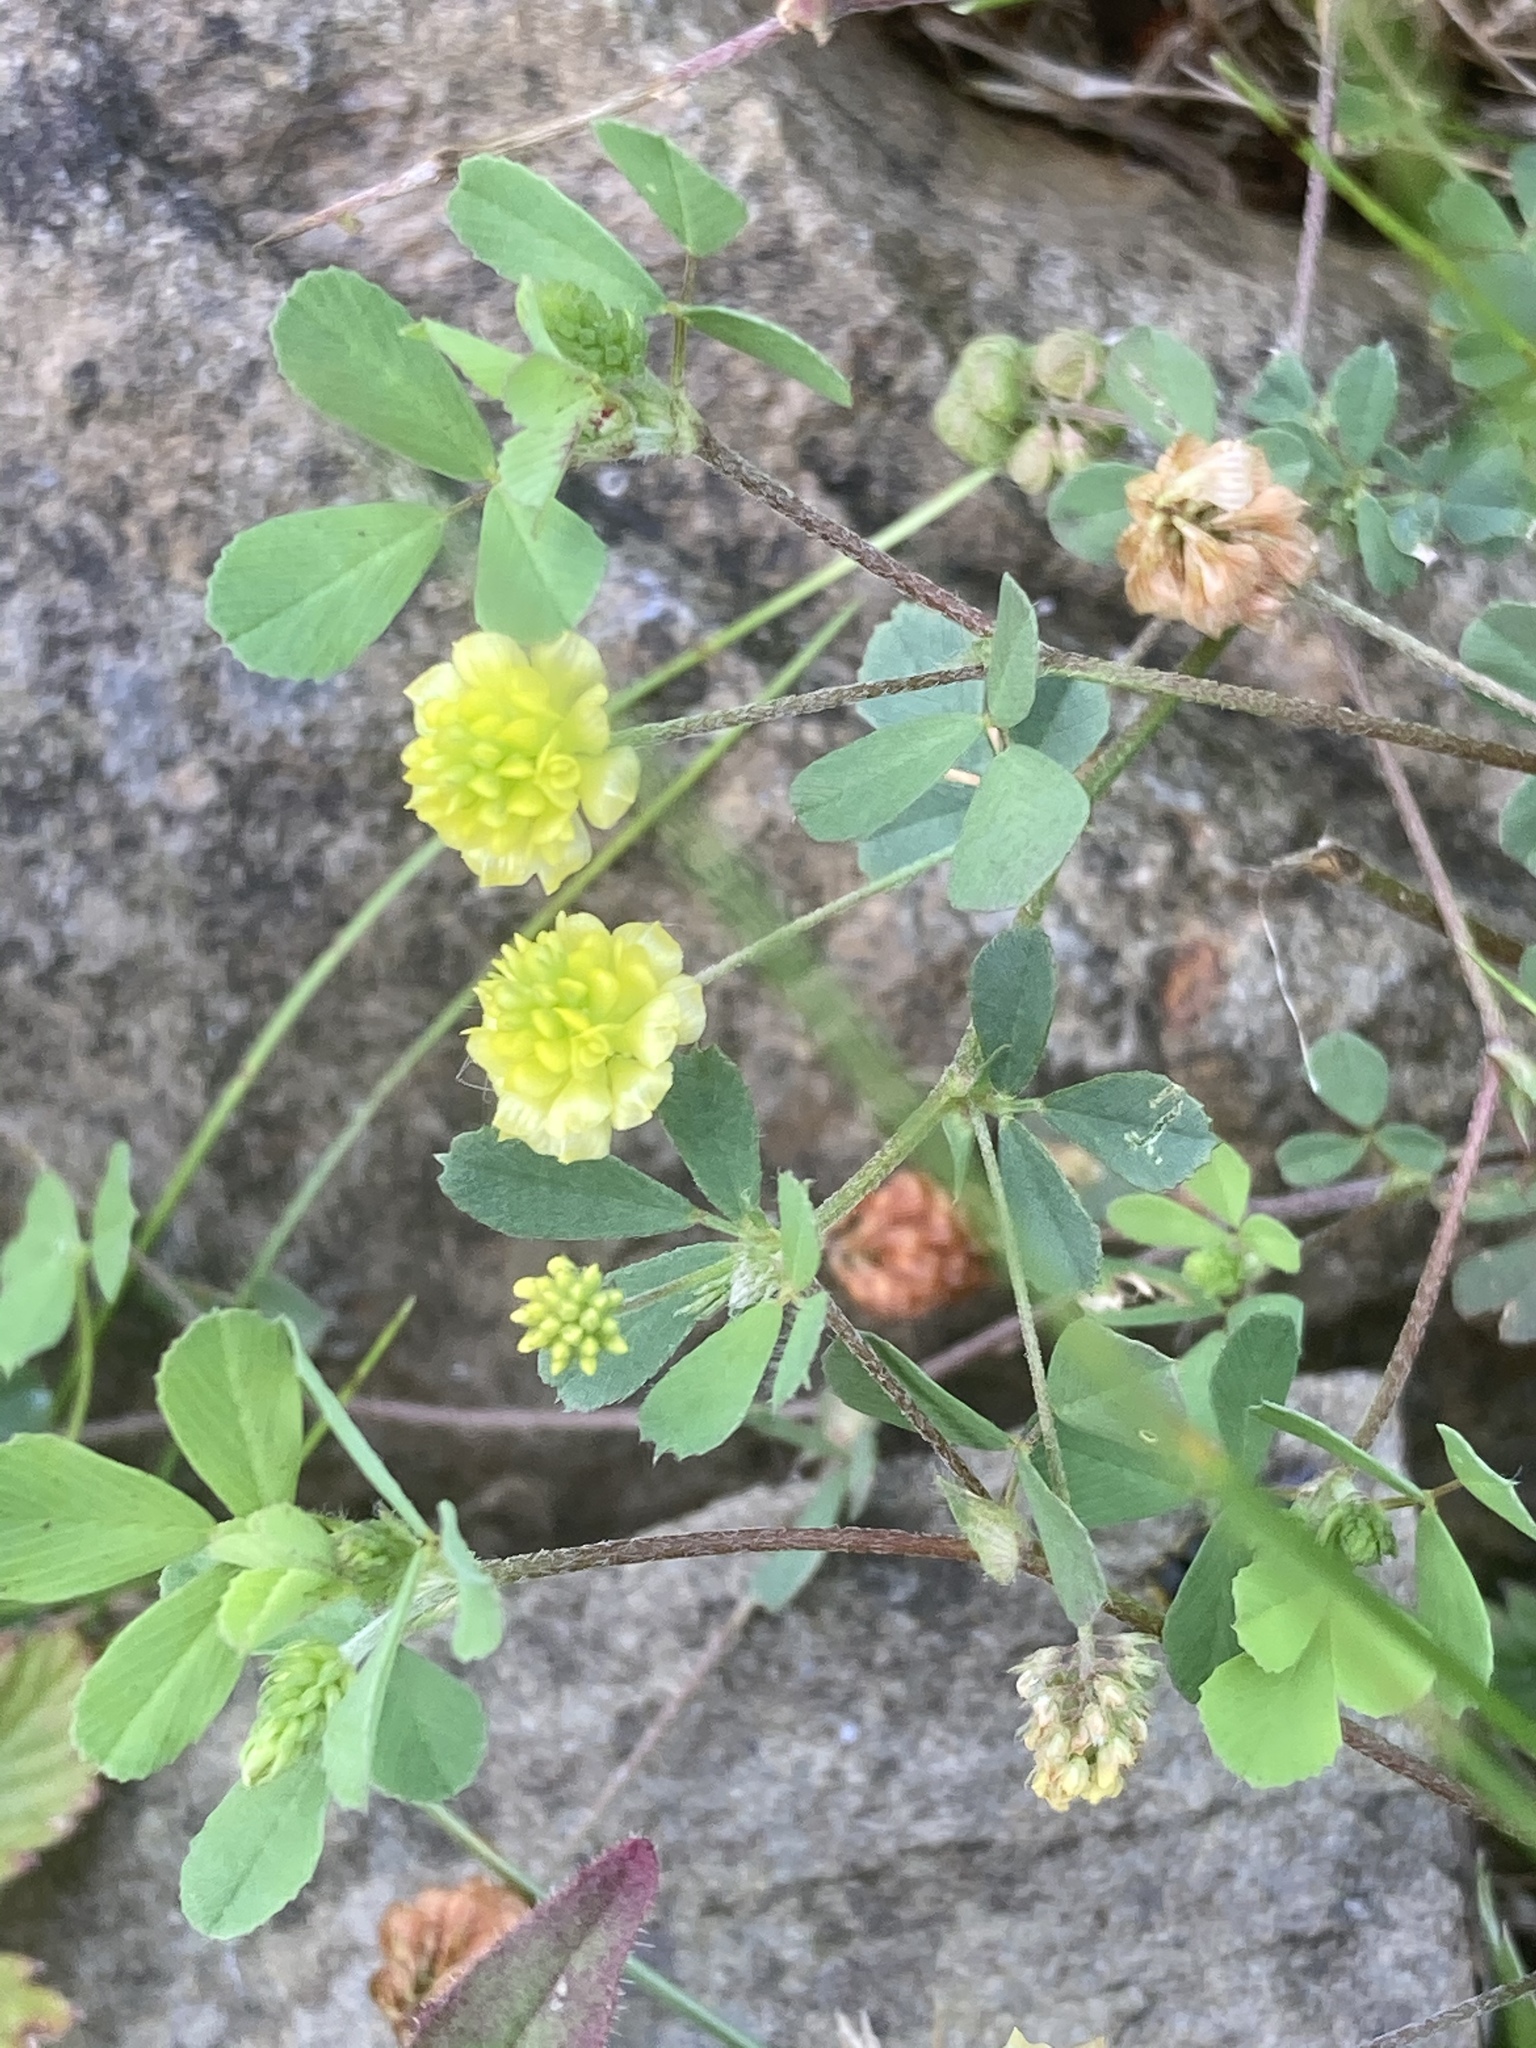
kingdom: Plantae
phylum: Tracheophyta
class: Magnoliopsida
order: Fabales
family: Fabaceae
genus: Trifolium
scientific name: Trifolium campestre
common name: Field clover
